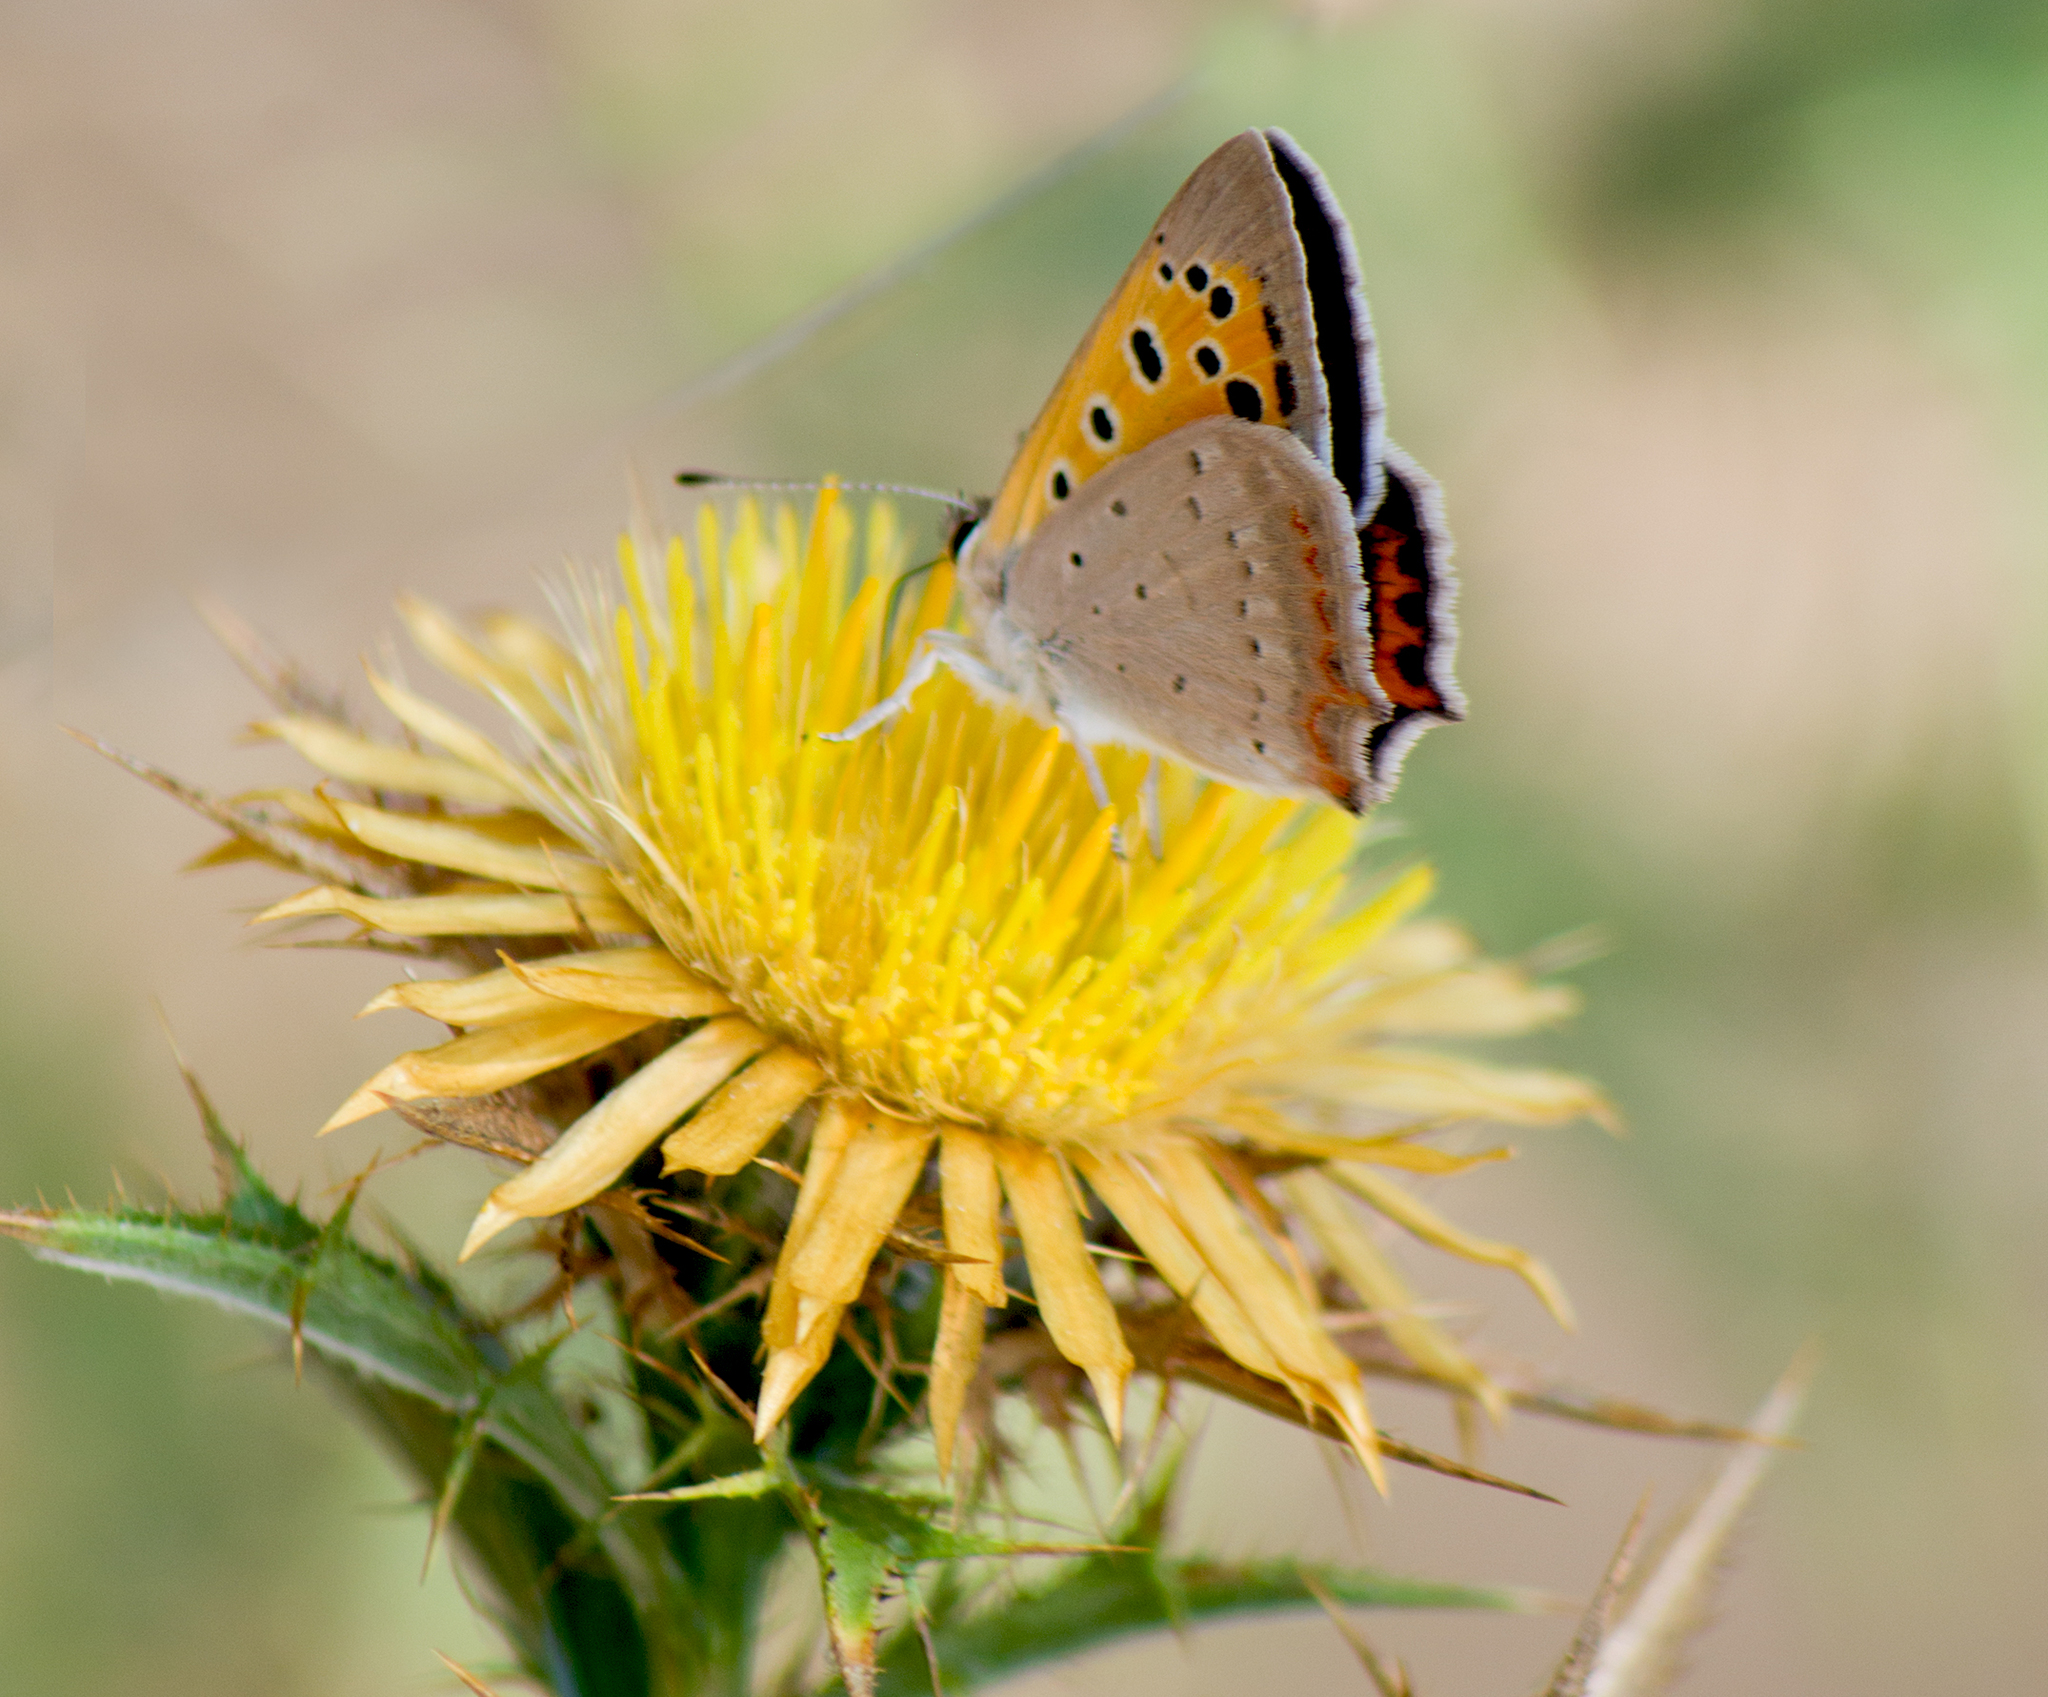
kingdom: Animalia
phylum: Arthropoda
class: Insecta
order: Lepidoptera
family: Lycaenidae
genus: Lycaena
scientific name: Lycaena phlaeas
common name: Small copper
